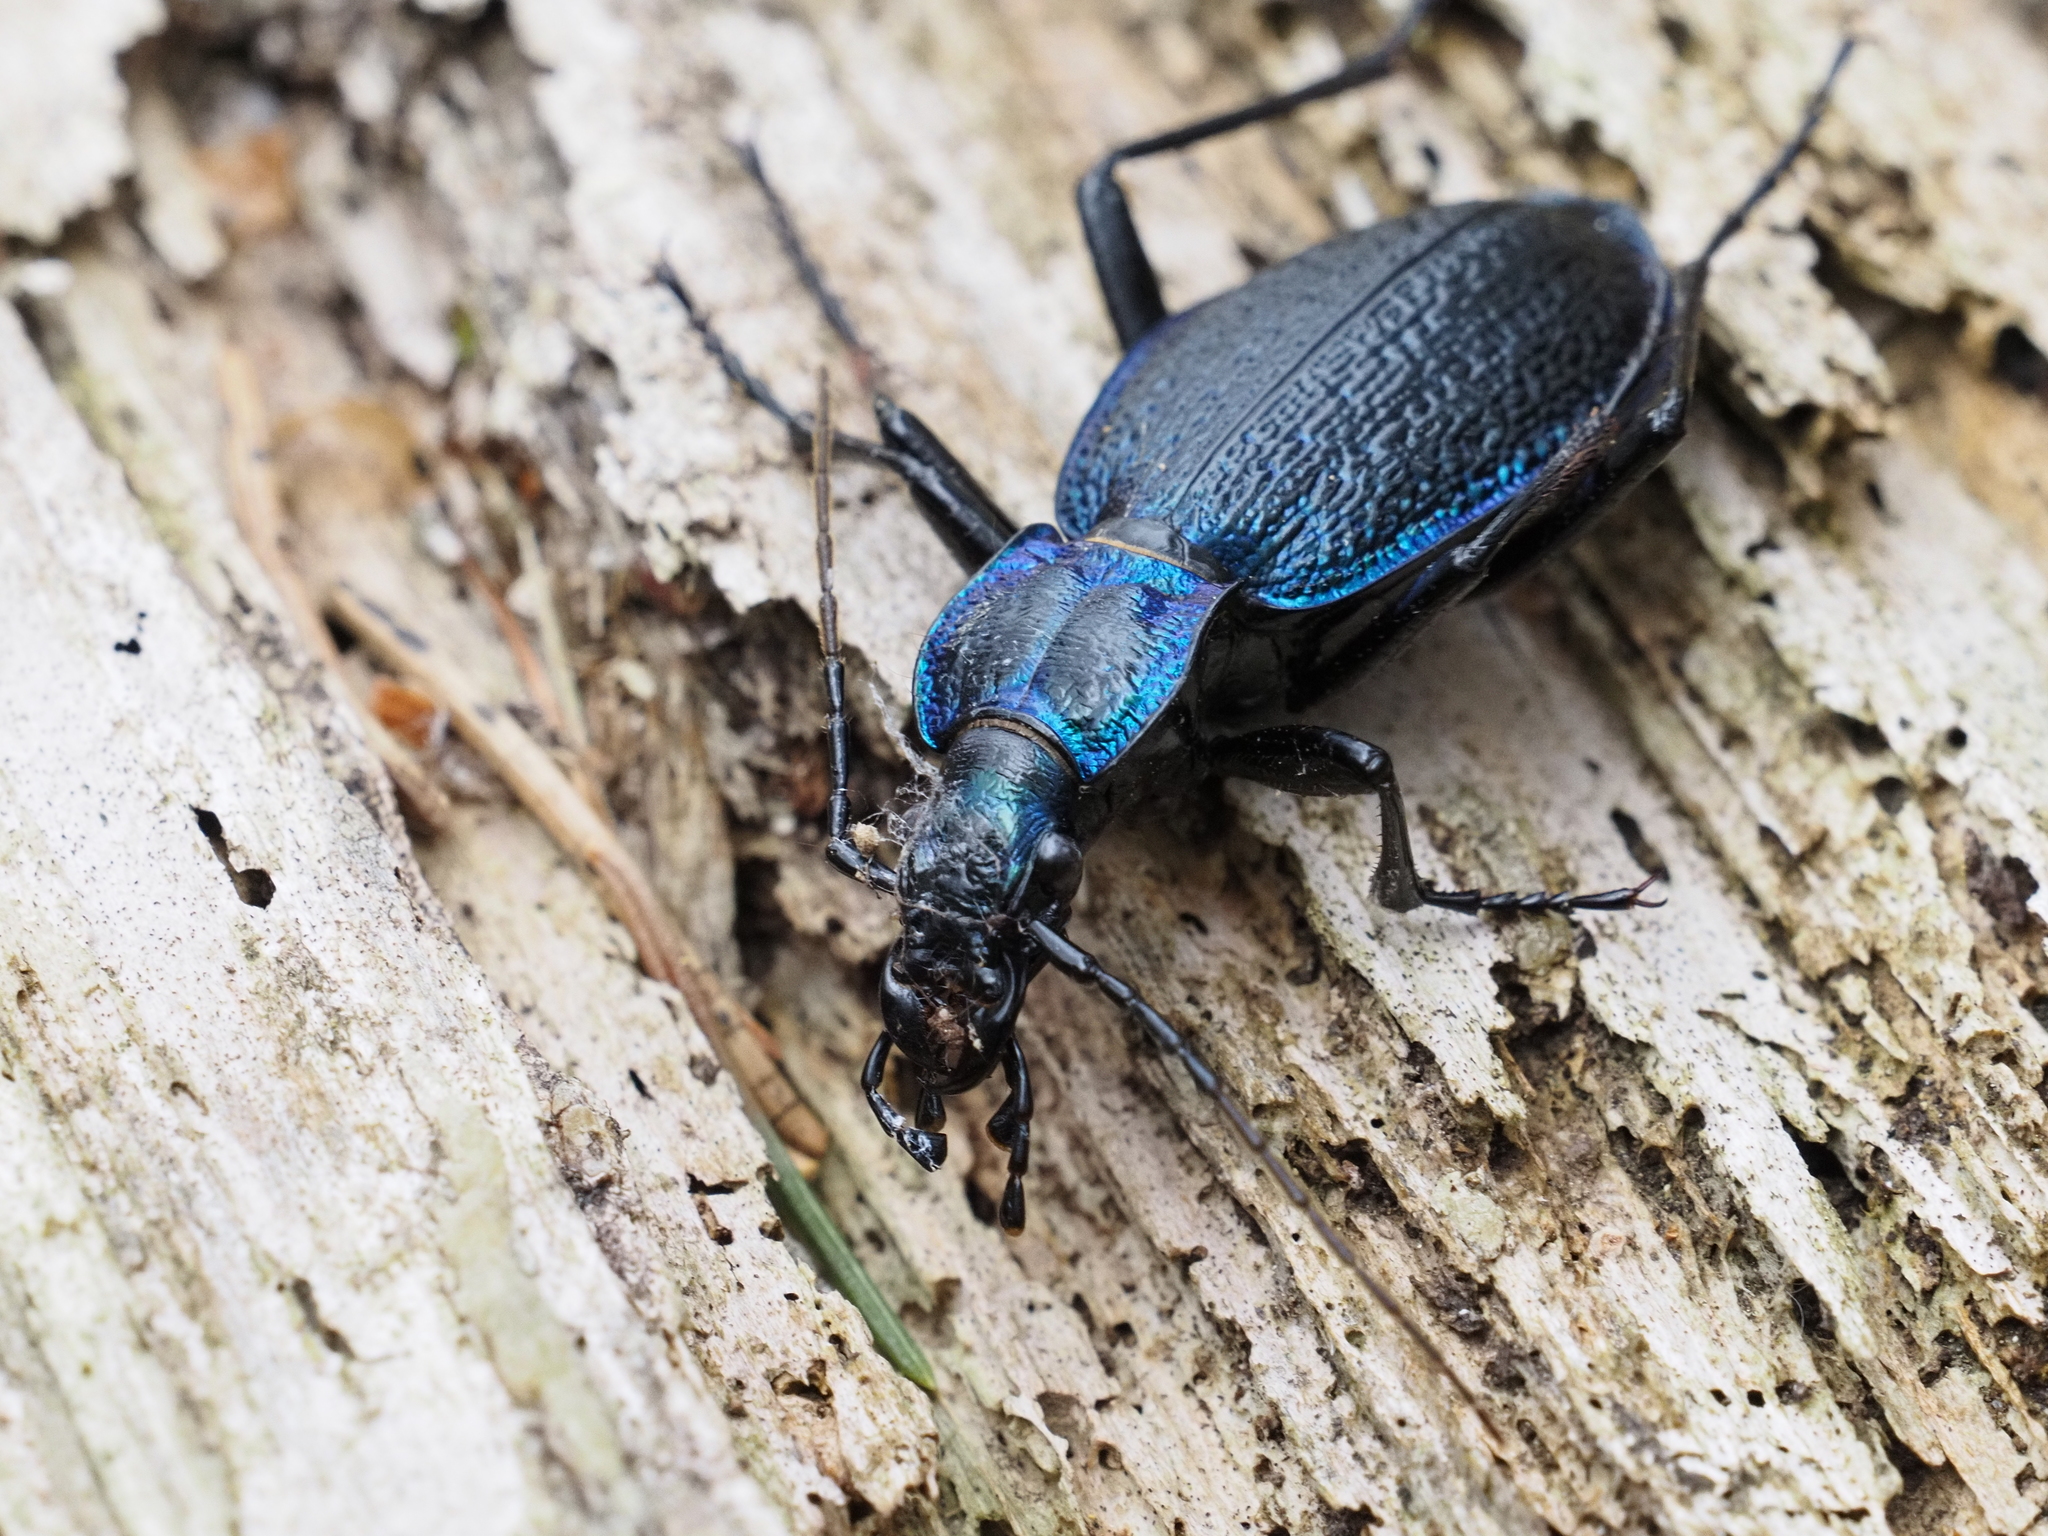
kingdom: Animalia
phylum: Arthropoda
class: Insecta
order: Coleoptera
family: Carabidae
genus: Carabus
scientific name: Carabus intricatus
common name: Blue ground beetle
